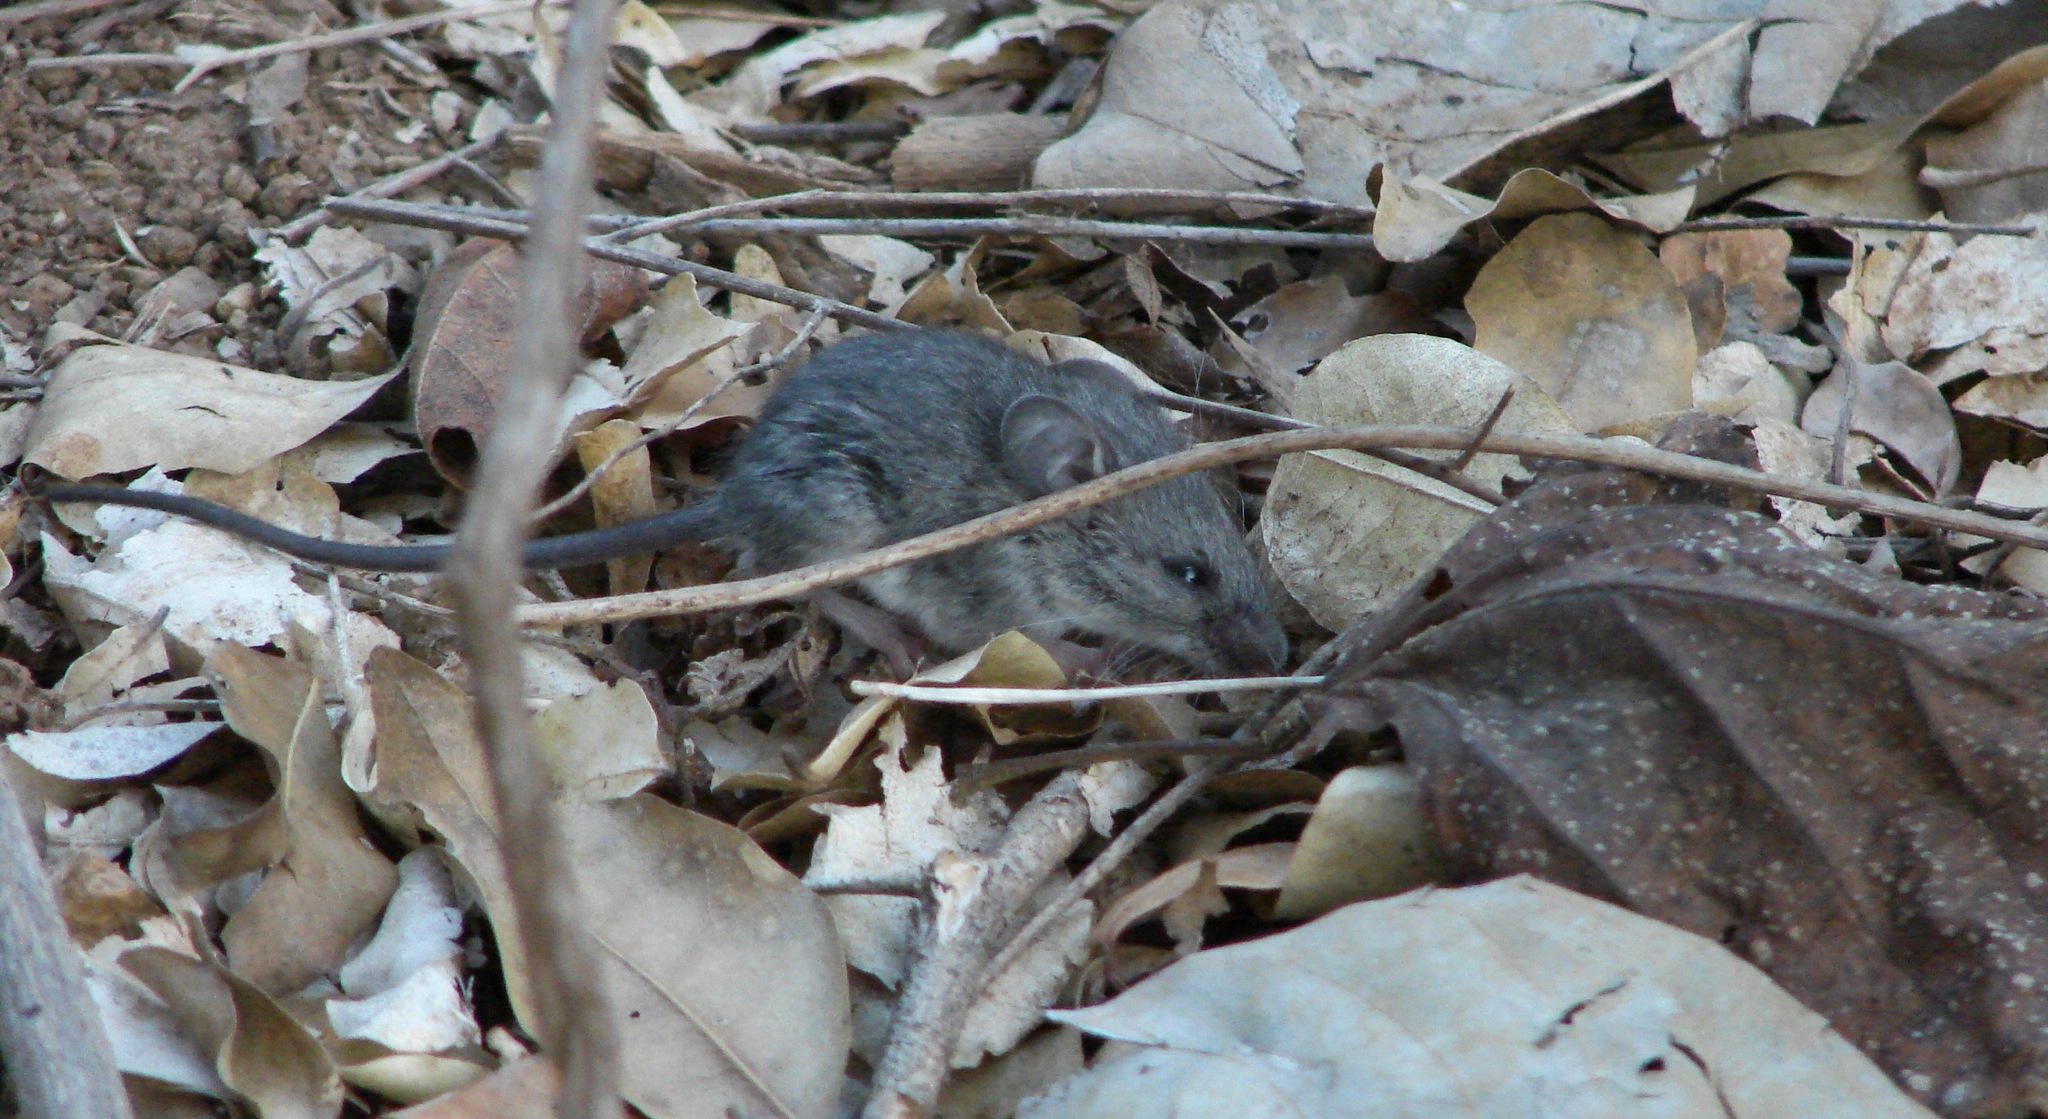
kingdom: Animalia
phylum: Chordata
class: Mammalia
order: Rodentia
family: Cricetidae
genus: Peromyscus
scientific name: Peromyscus simulus
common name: Sinaloan deermouse
